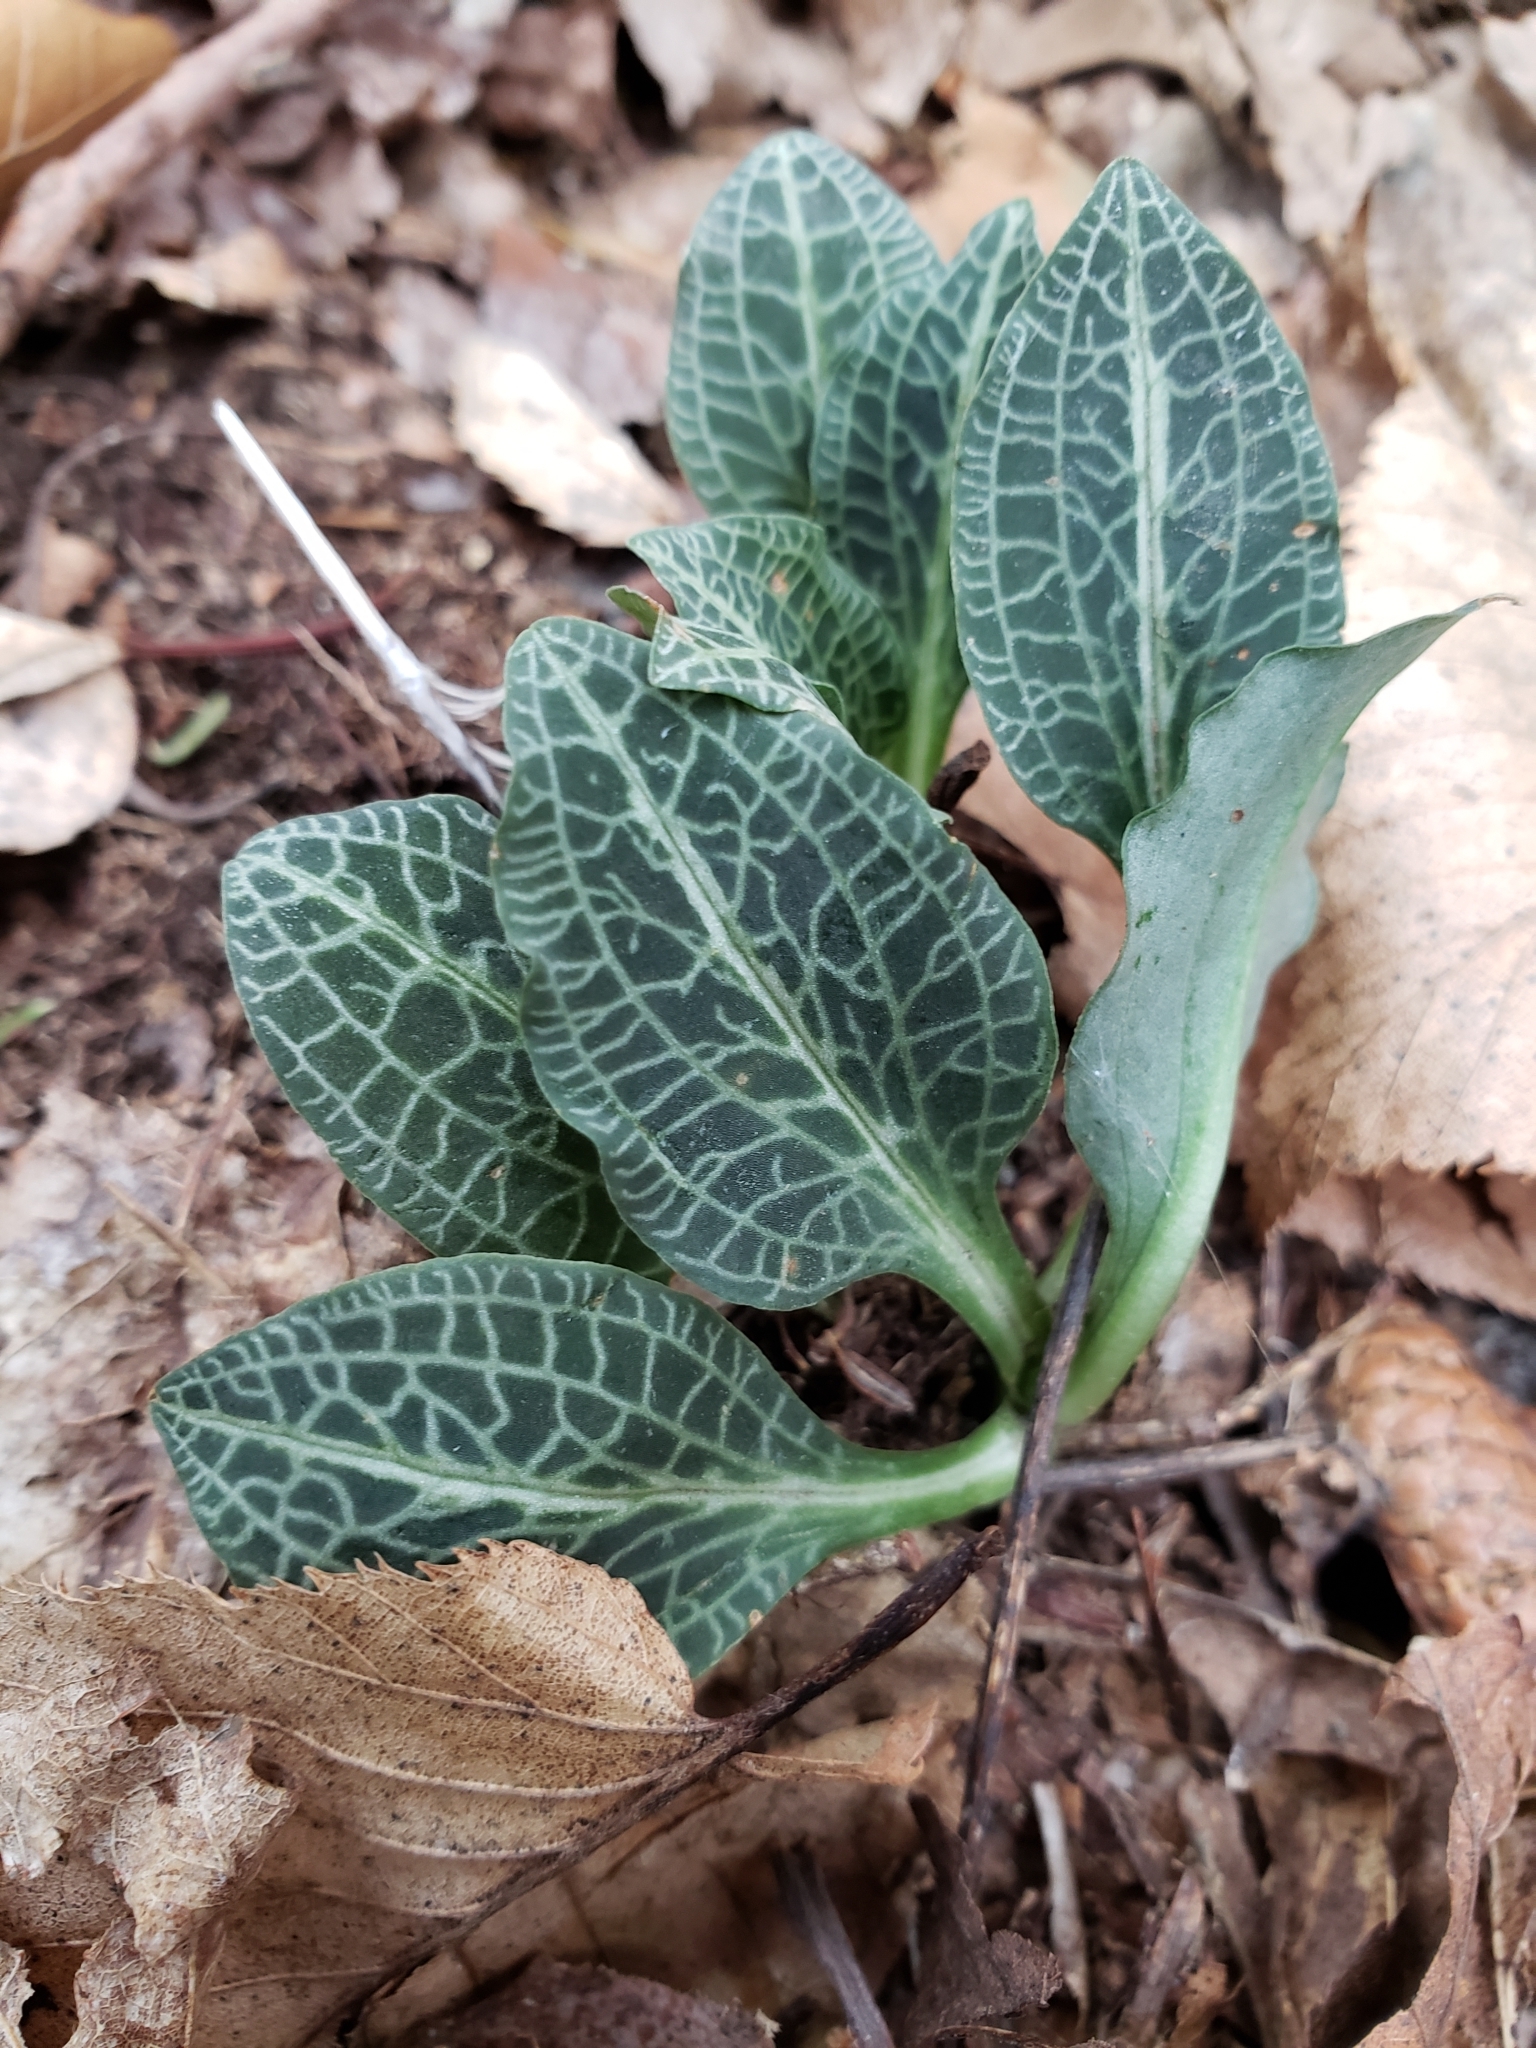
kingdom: Plantae
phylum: Tracheophyta
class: Liliopsida
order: Asparagales
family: Orchidaceae
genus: Goodyera
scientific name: Goodyera pubescens
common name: Downy rattlesnake-plantain
